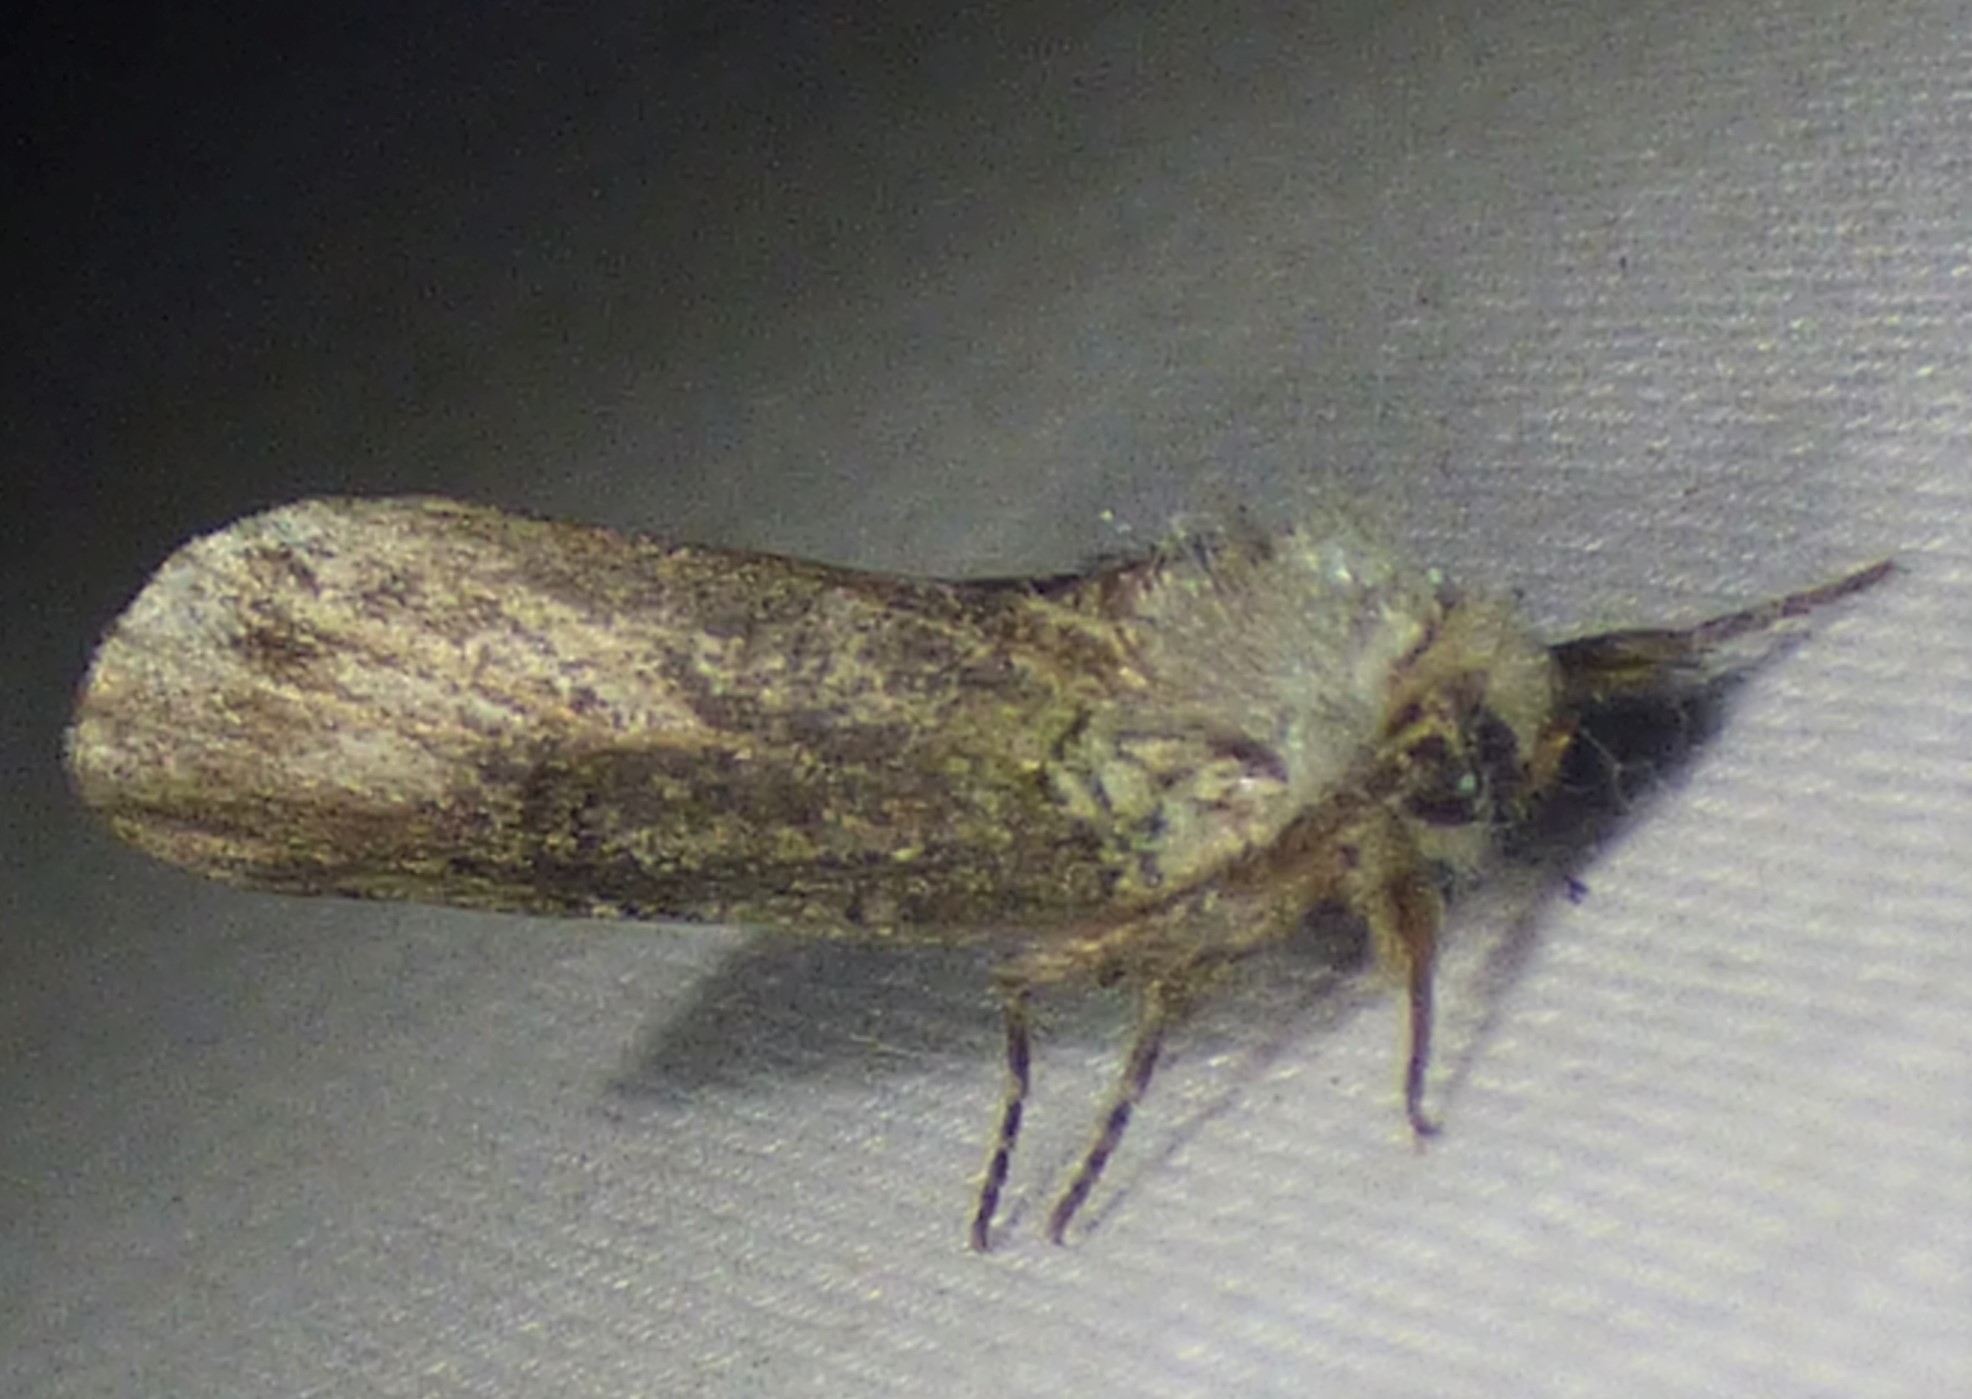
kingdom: Animalia
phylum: Arthropoda
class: Insecta
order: Lepidoptera
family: Notodontidae
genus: Schizura
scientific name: Schizura
